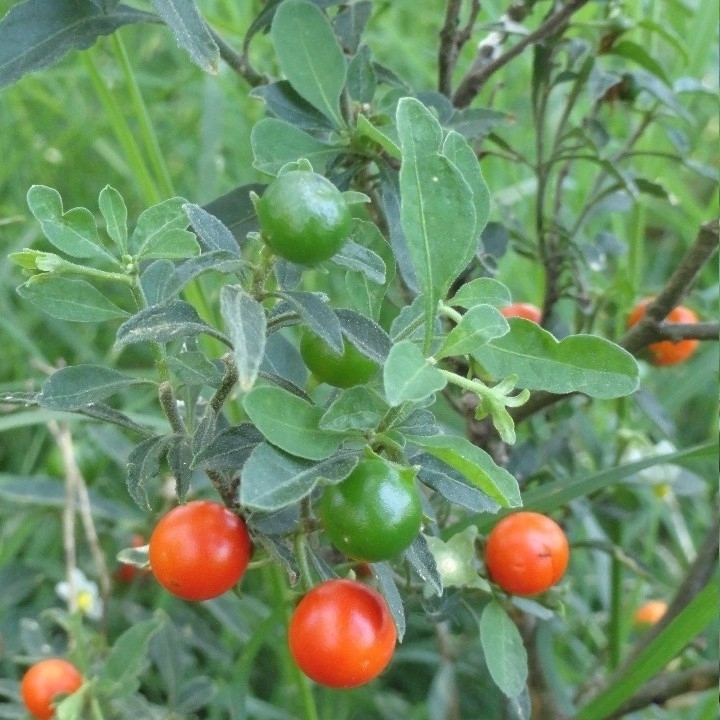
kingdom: Plantae
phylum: Tracheophyta
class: Magnoliopsida
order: Solanales
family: Solanaceae
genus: Solanum
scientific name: Solanum pseudocapsicum
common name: Jerusalem cherry
